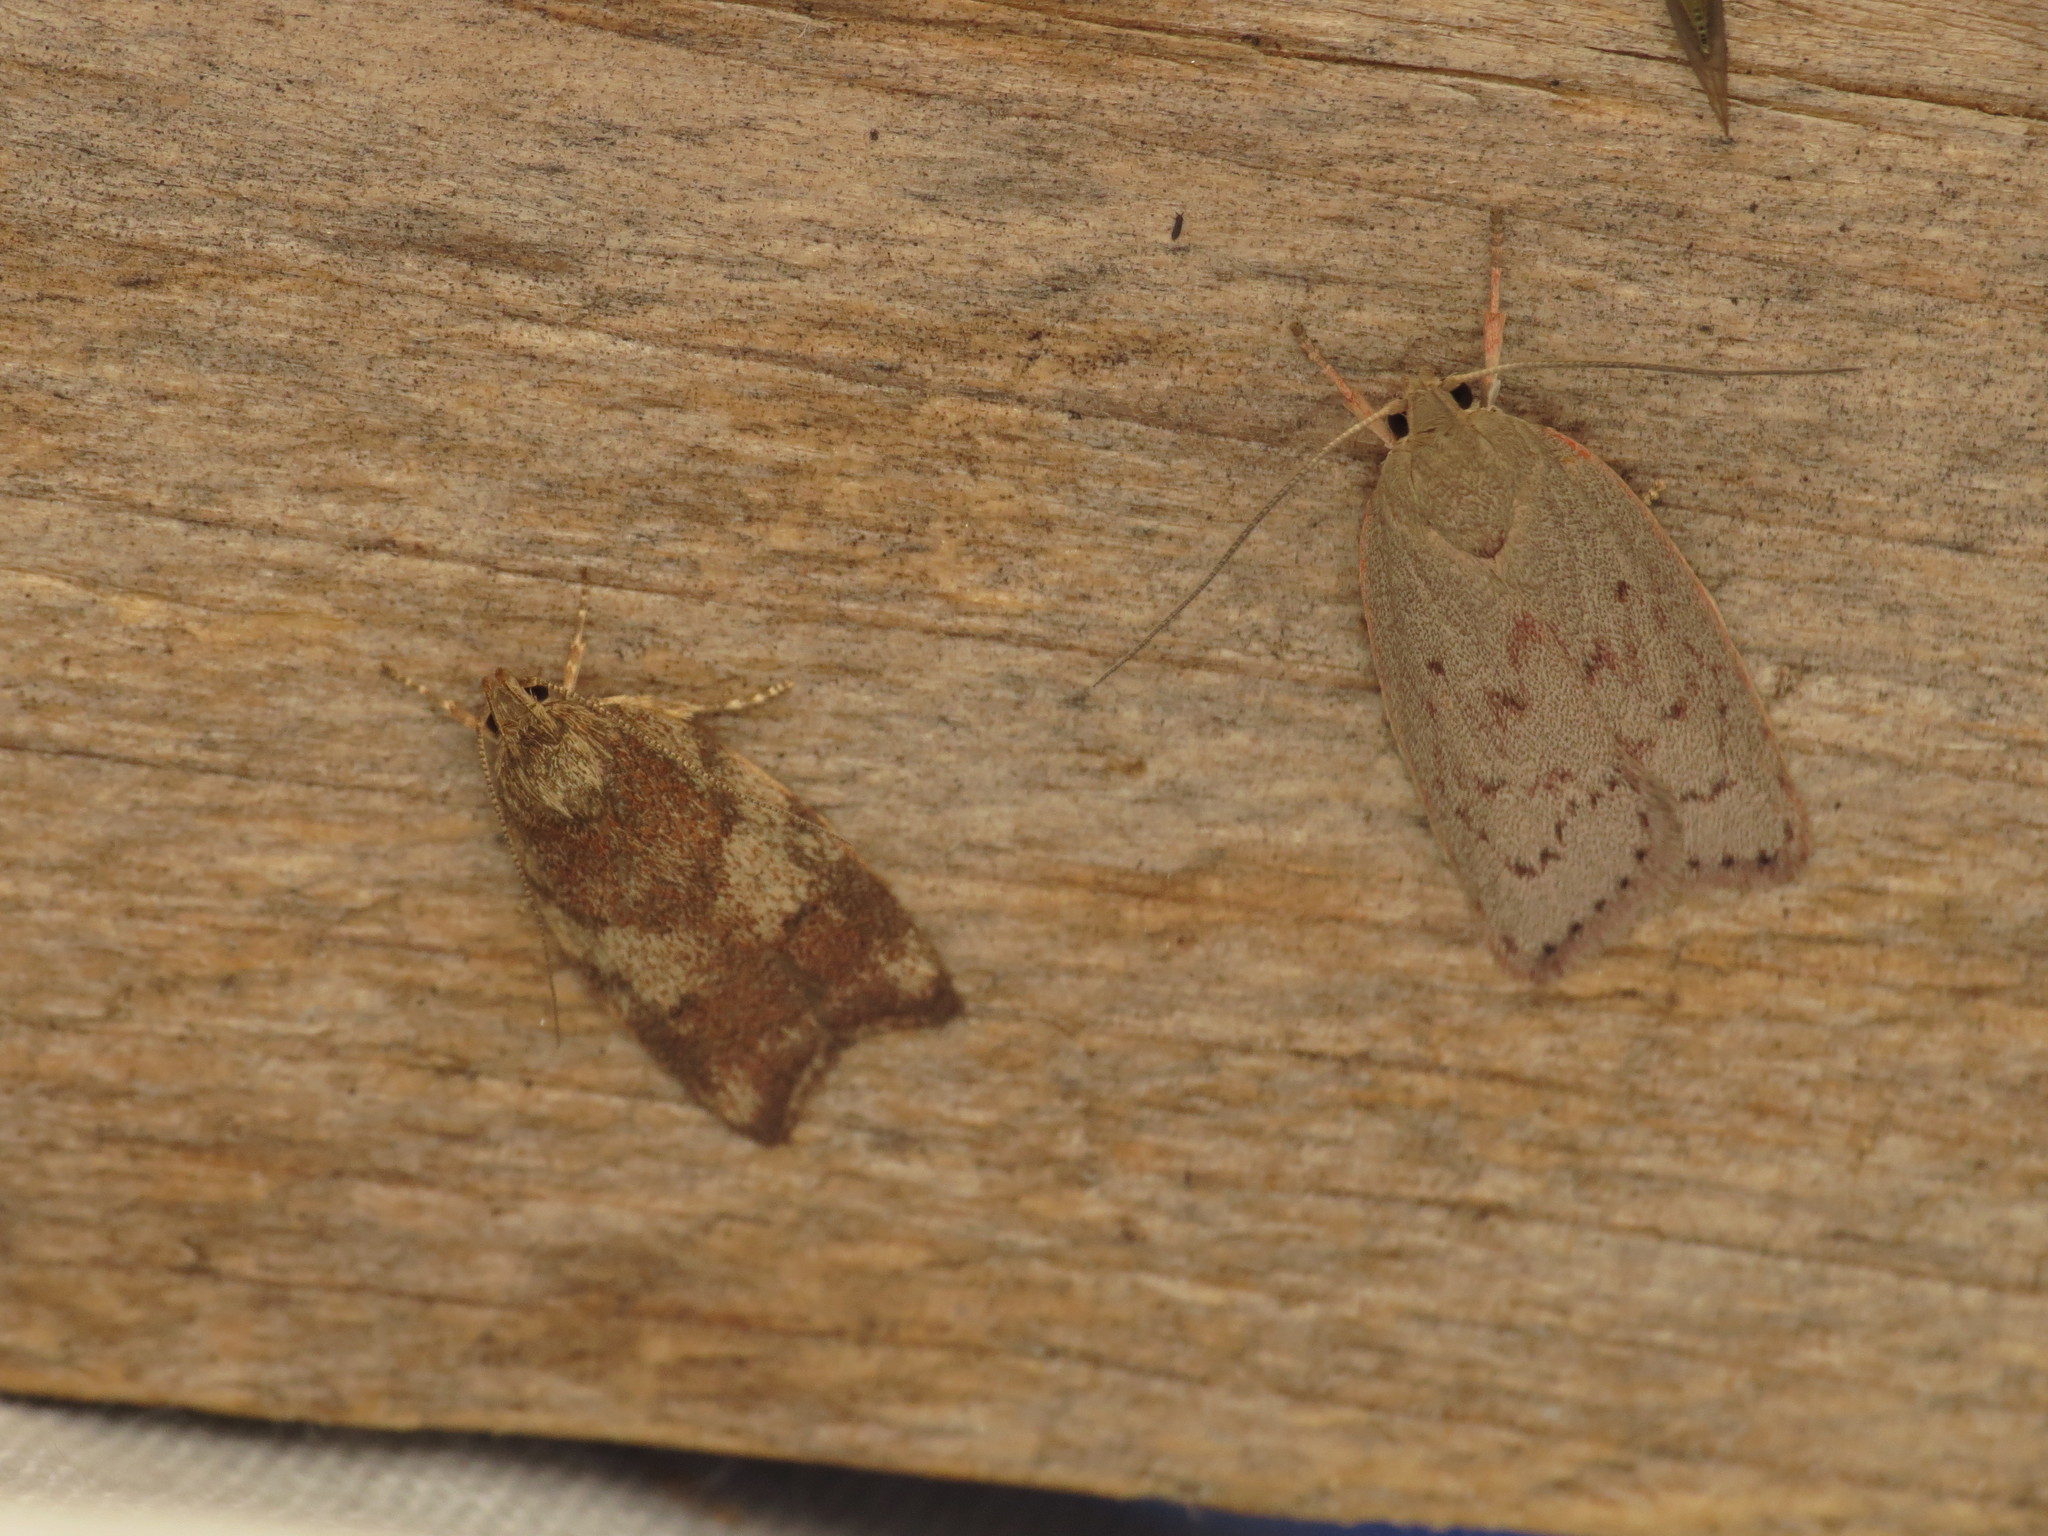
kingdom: Animalia
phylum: Arthropoda
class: Insecta
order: Lepidoptera
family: Oecophoridae
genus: Garrha
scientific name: Garrha carnea
